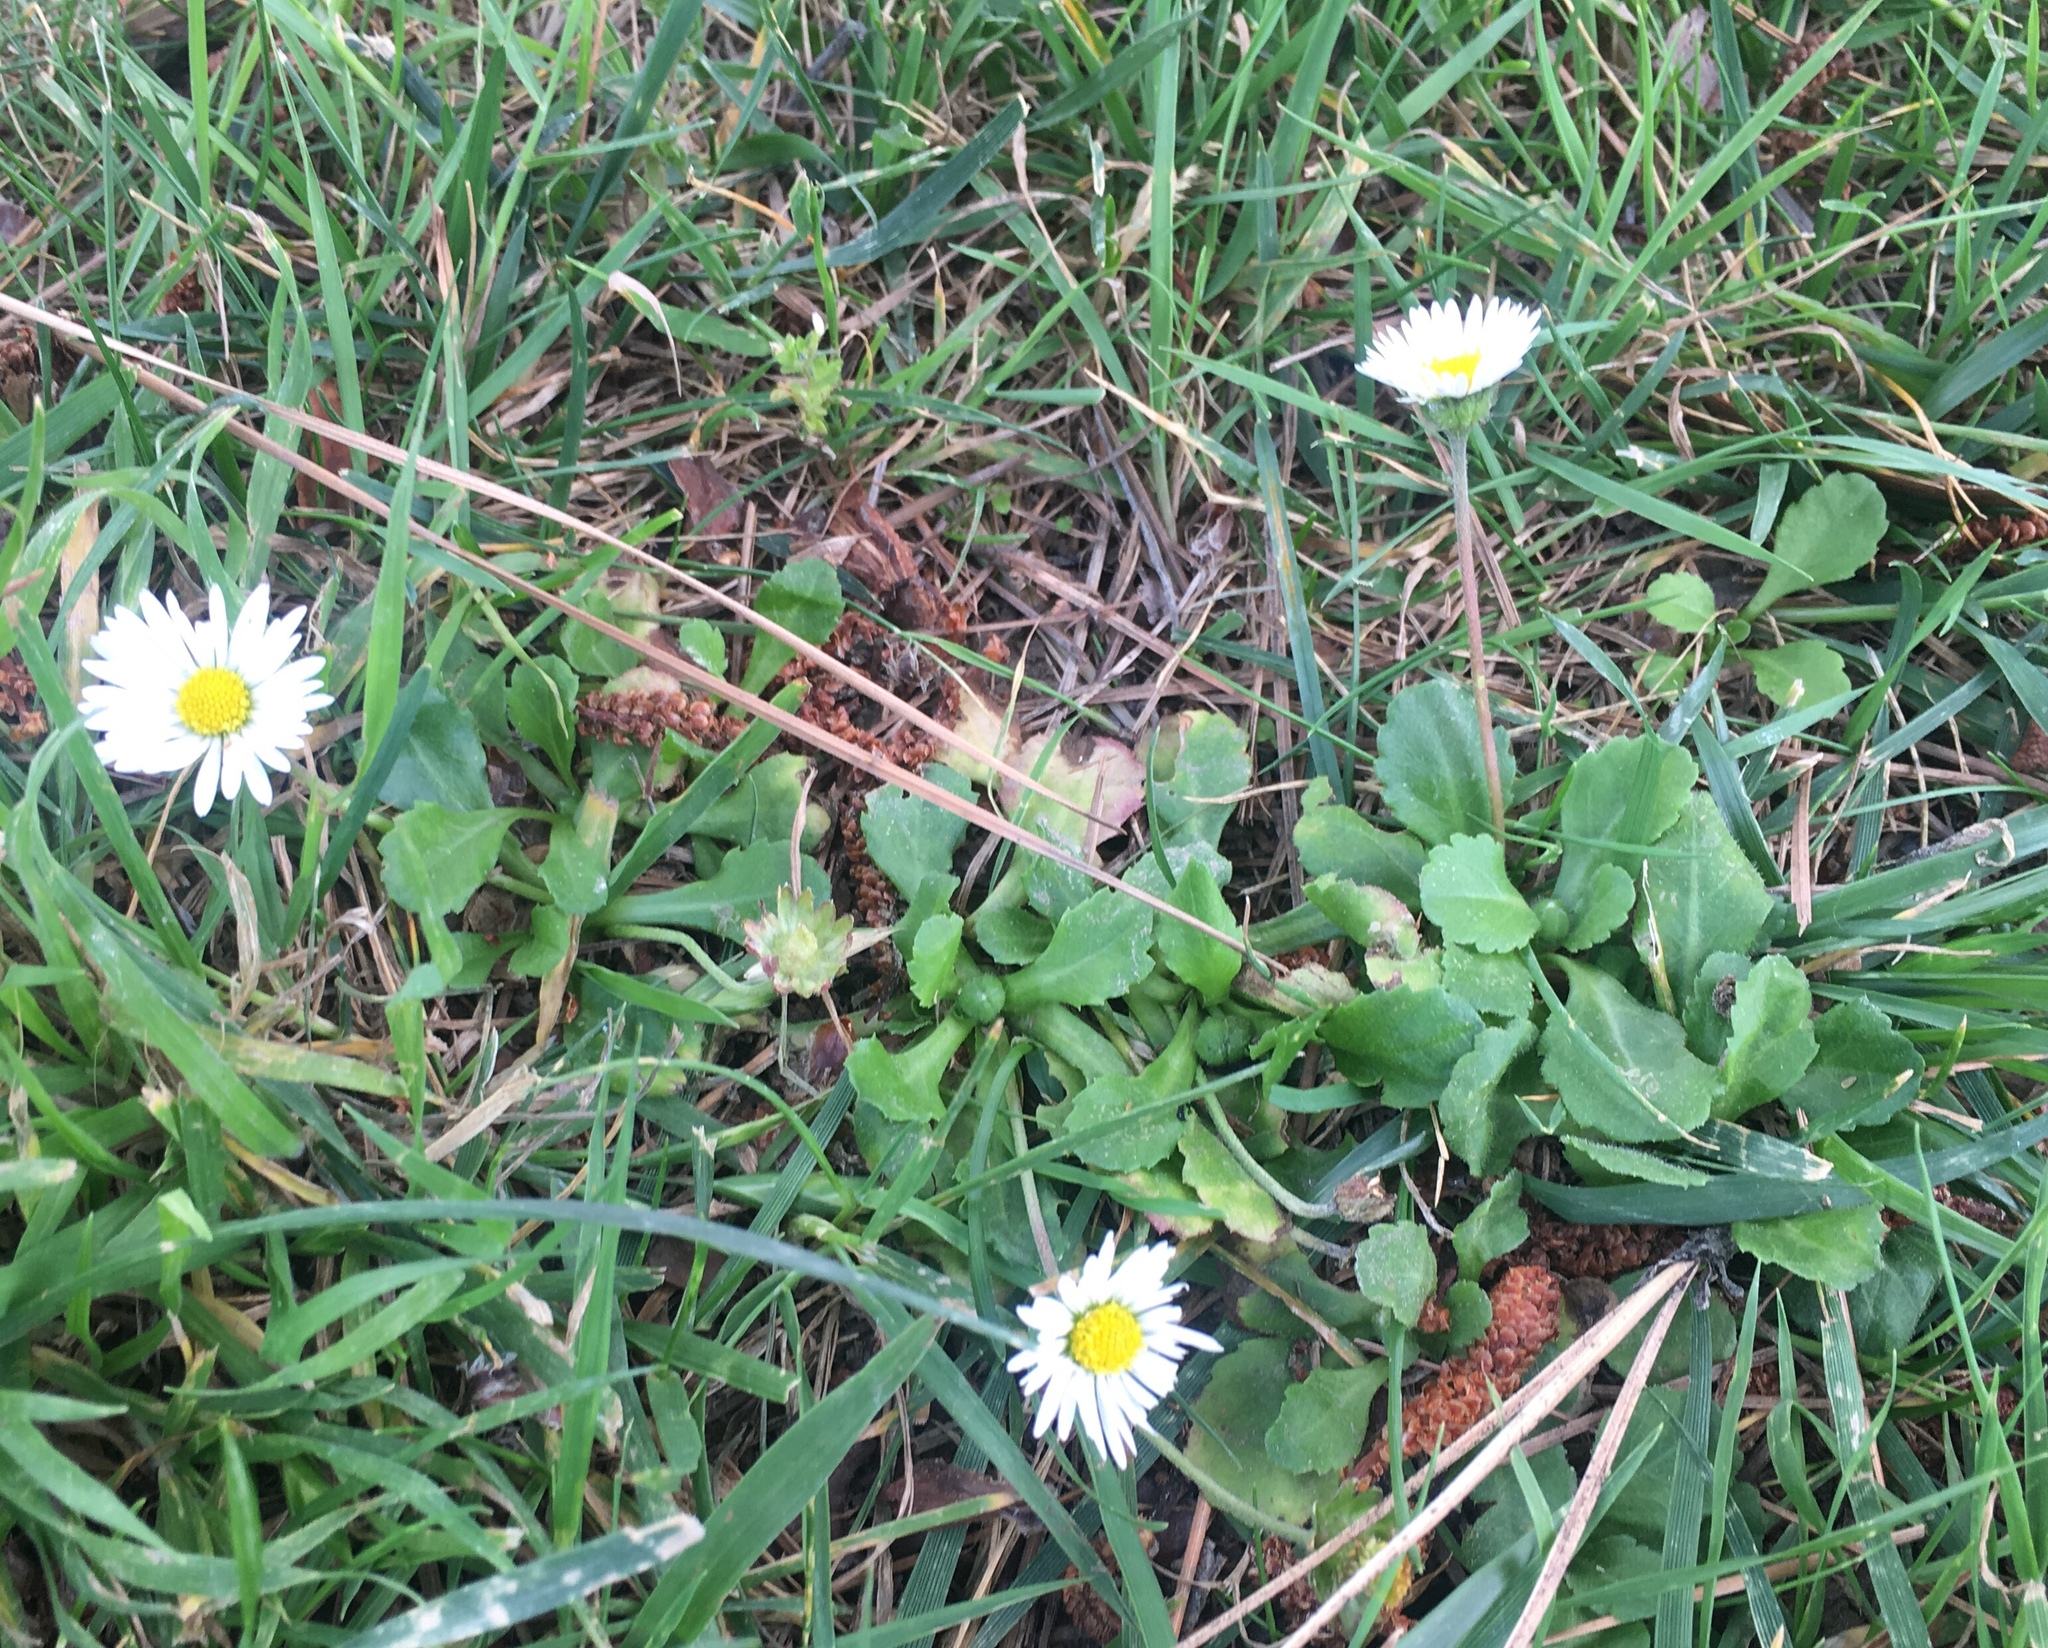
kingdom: Plantae
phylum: Tracheophyta
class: Magnoliopsida
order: Asterales
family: Asteraceae
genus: Bellis
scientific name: Bellis perennis
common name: Lawndaisy
